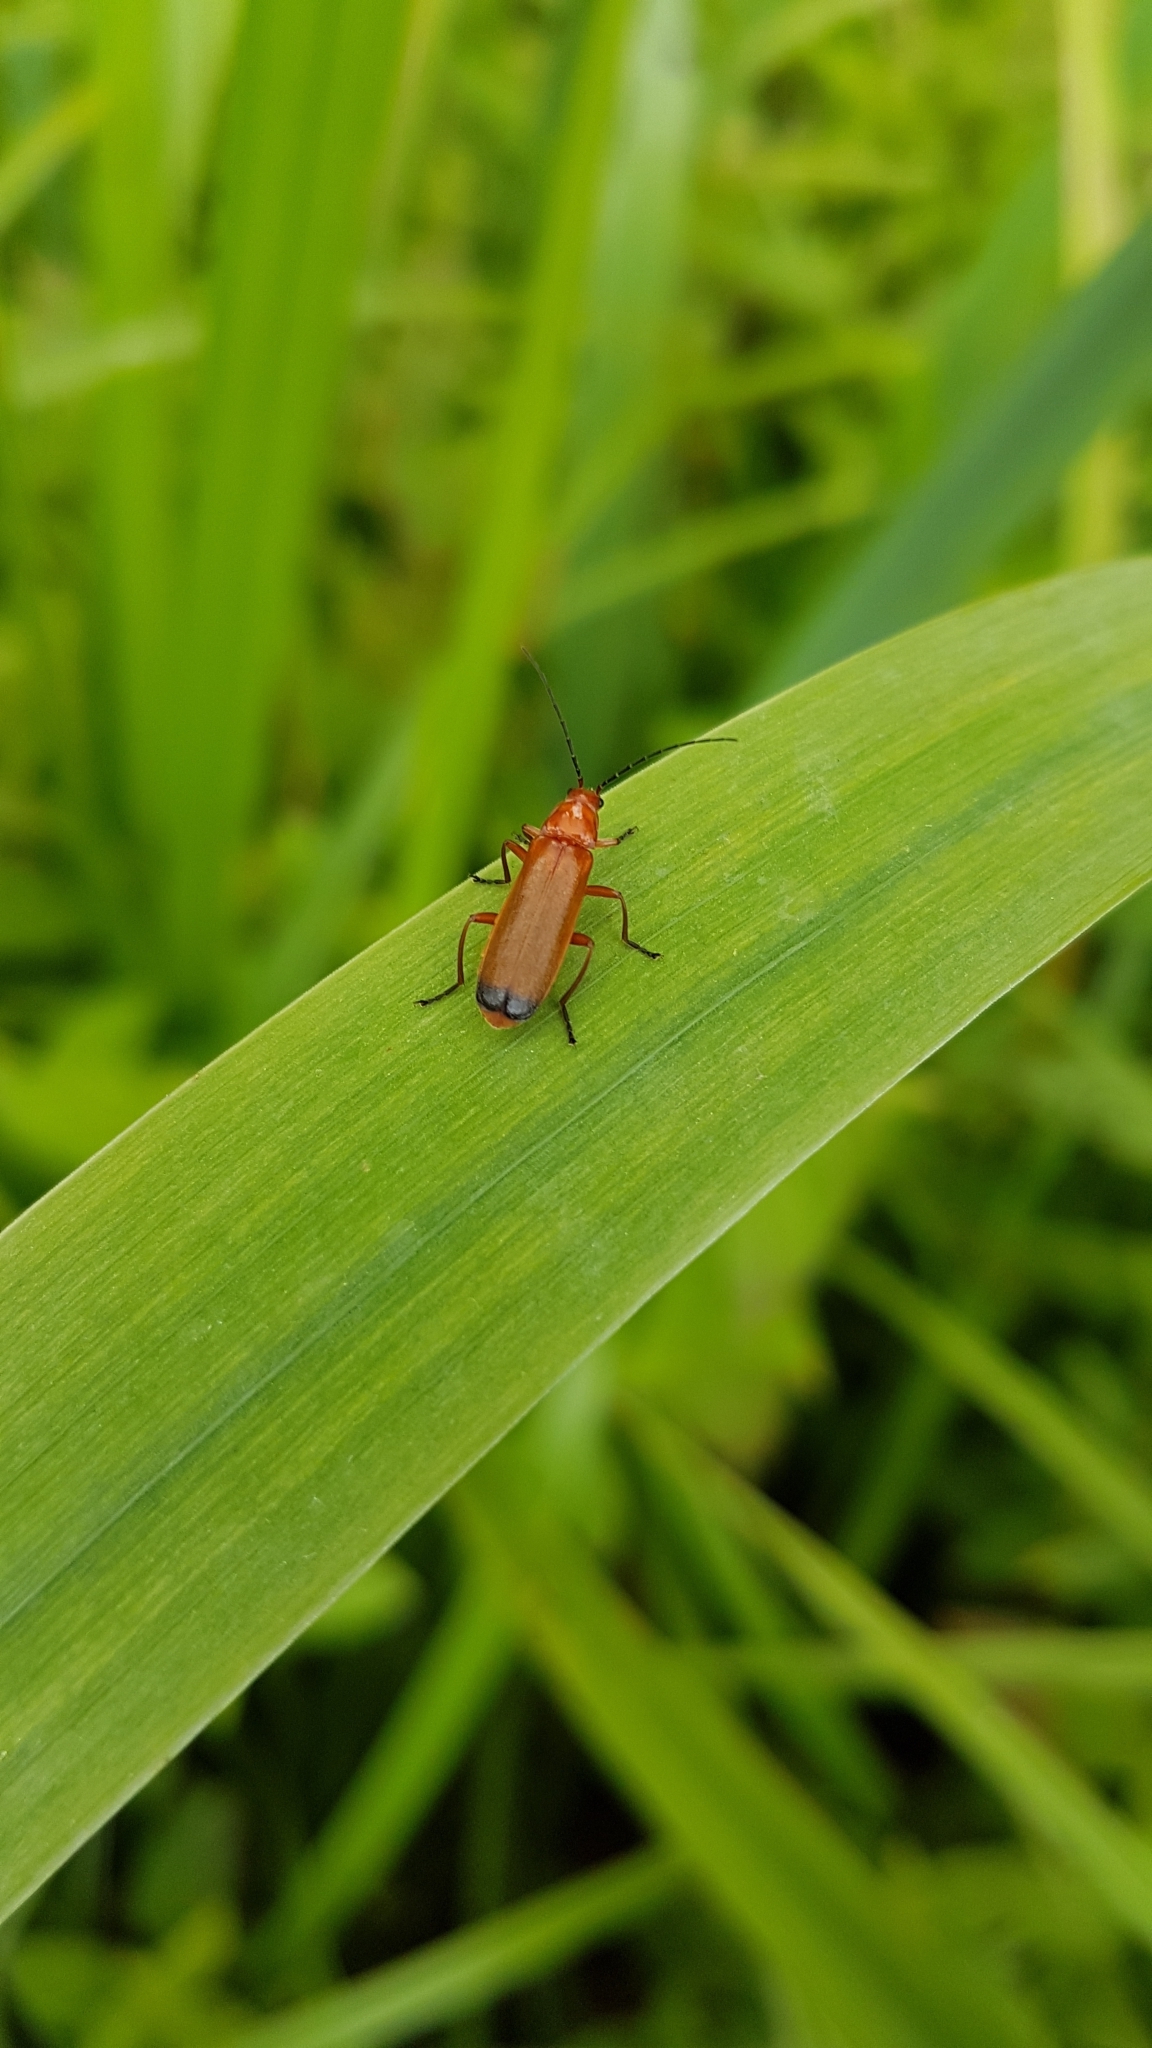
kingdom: Animalia
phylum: Arthropoda
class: Insecta
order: Coleoptera
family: Cantharidae
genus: Rhagonycha
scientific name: Rhagonycha fulva
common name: Common red soldier beetle
